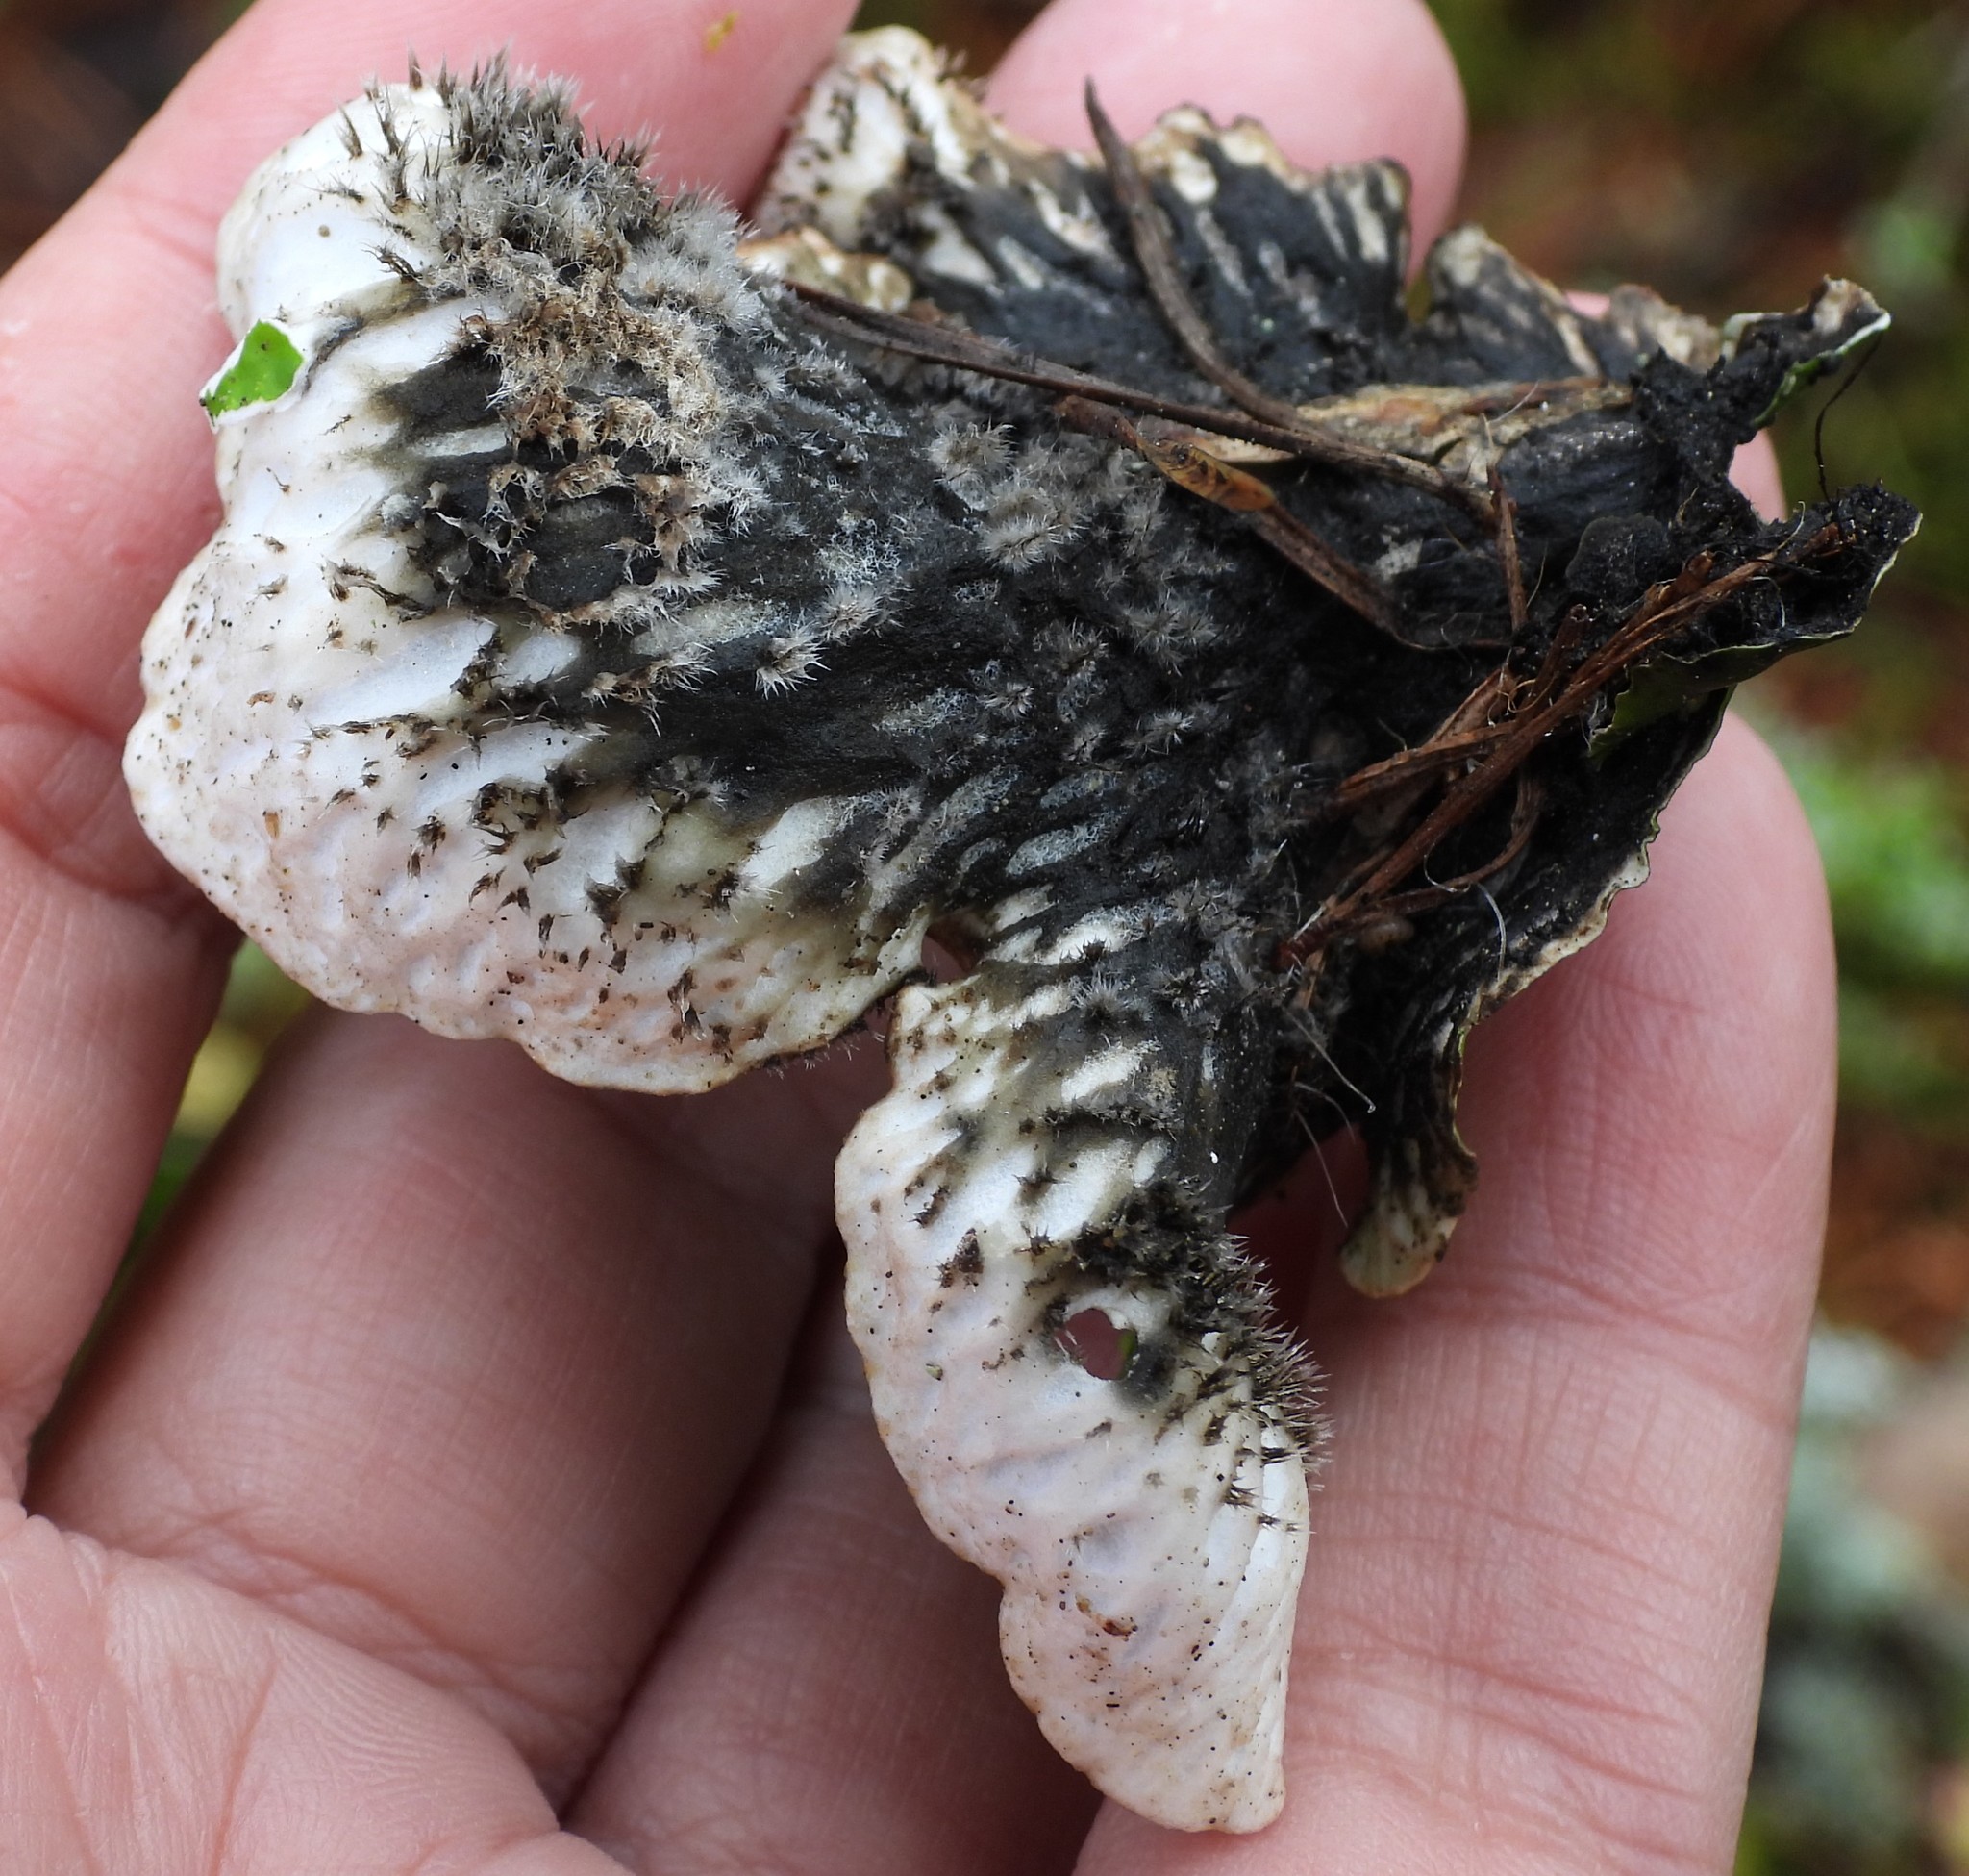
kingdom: Fungi
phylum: Ascomycota
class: Lecanoromycetes
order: Peltigerales
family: Peltigeraceae
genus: Peltigera
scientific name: Peltigera aphthosa
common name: Common freckle pelt lichen
